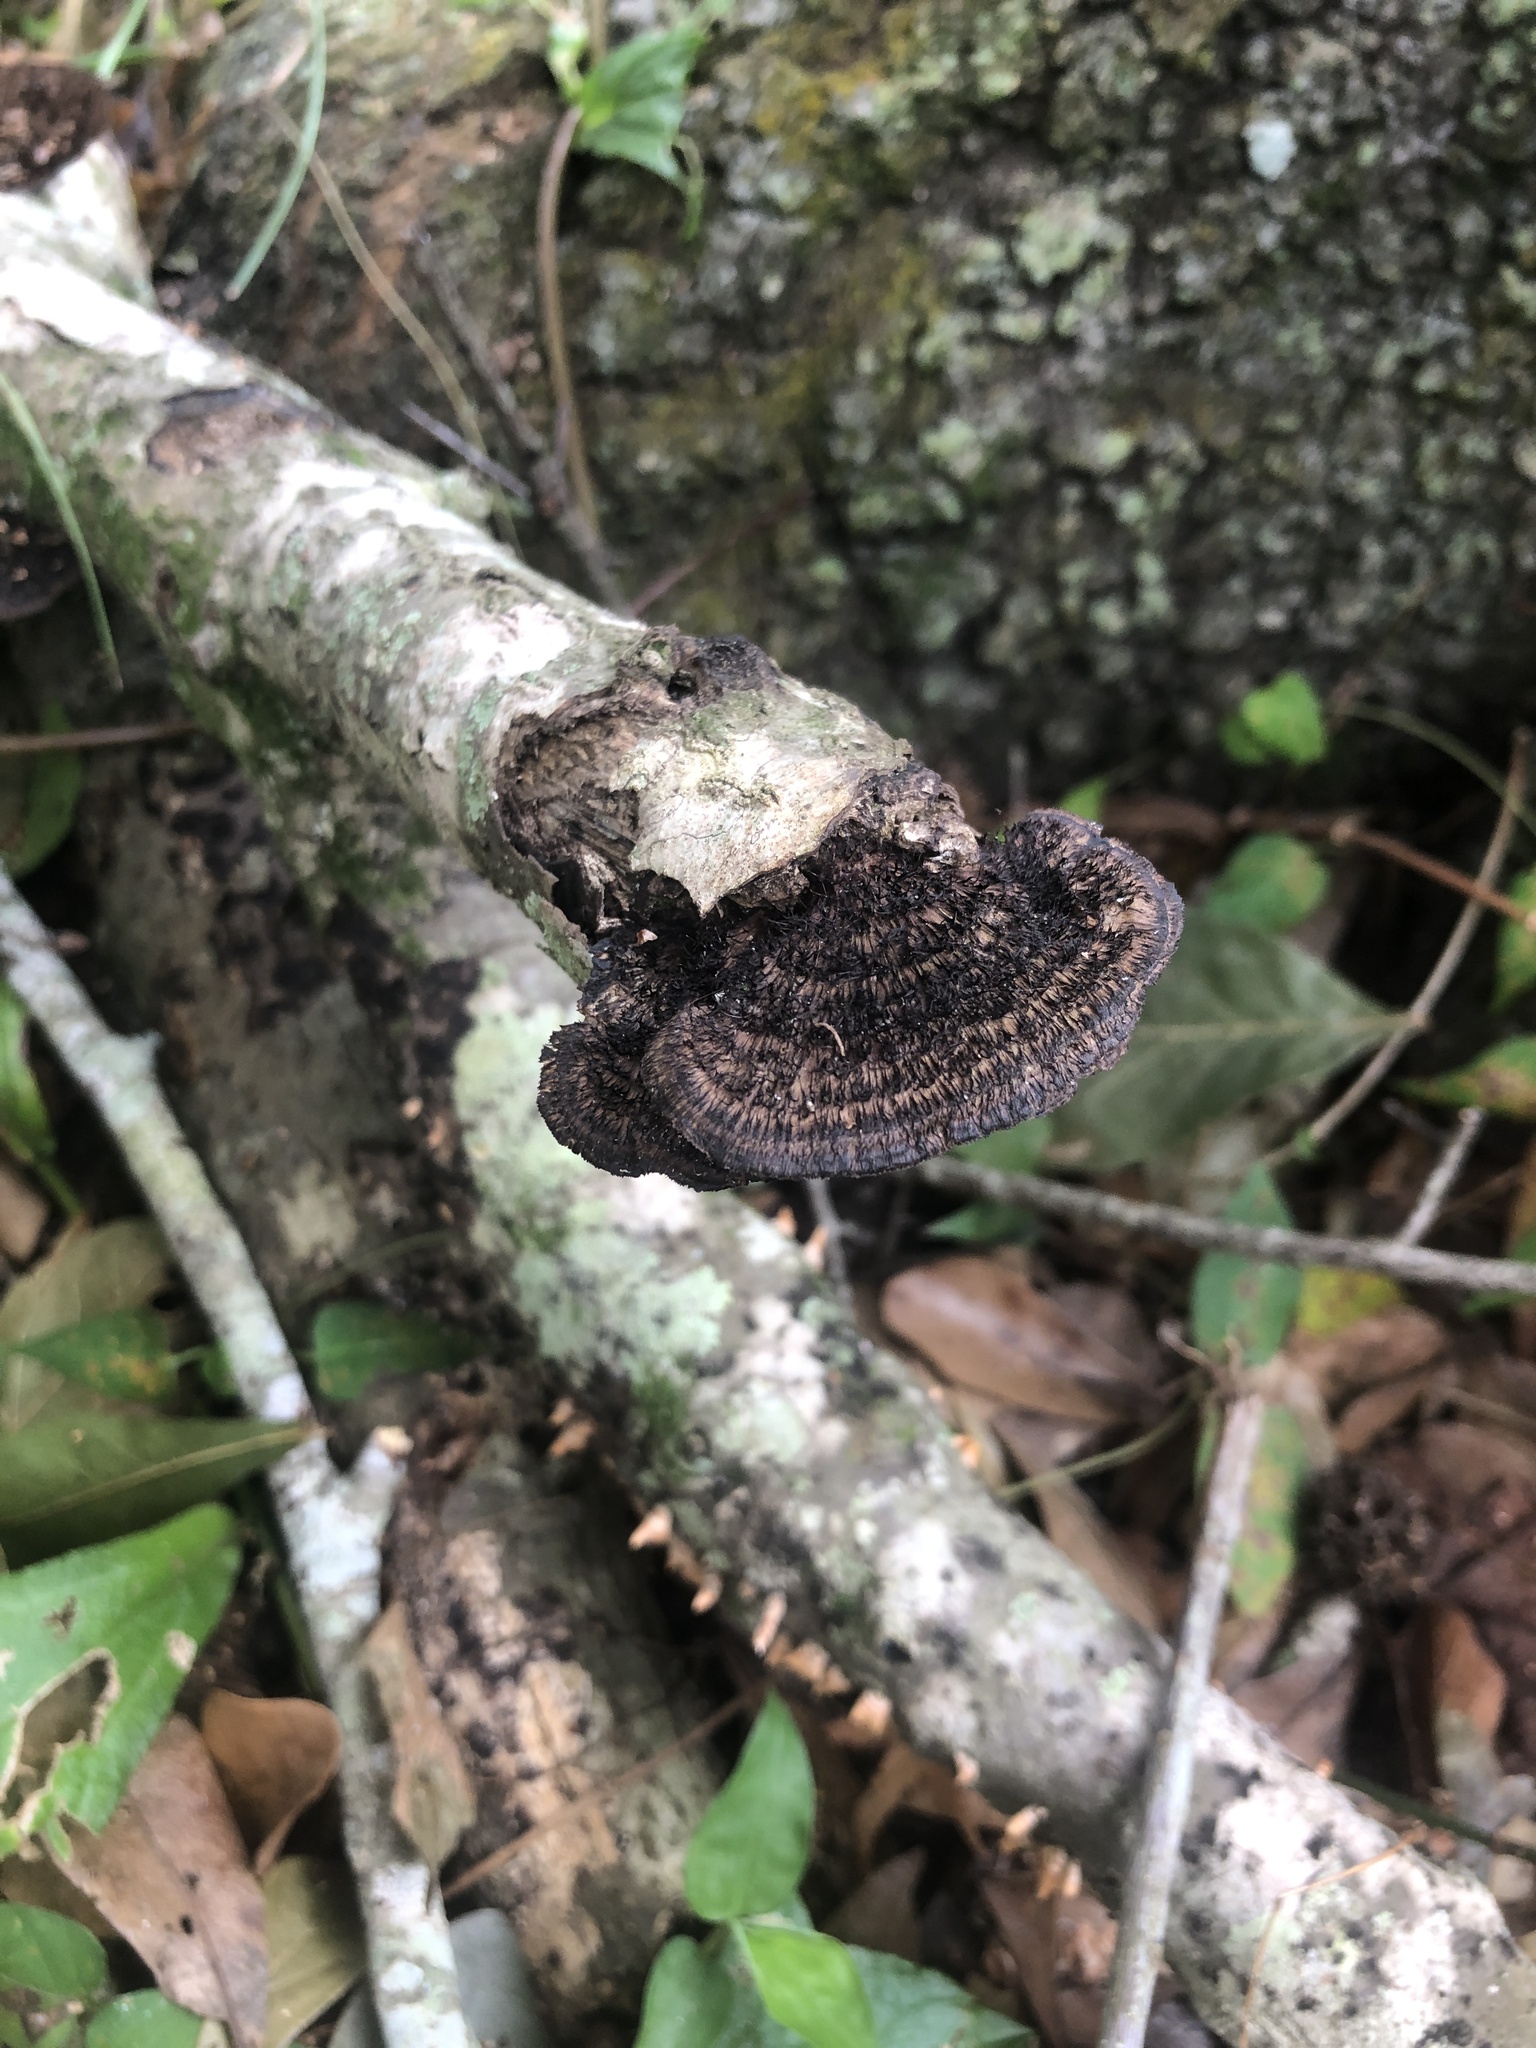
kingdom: Fungi
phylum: Basidiomycota
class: Agaricomycetes
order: Polyporales
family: Cerrenaceae
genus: Cerrena
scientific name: Cerrena hydnoides
